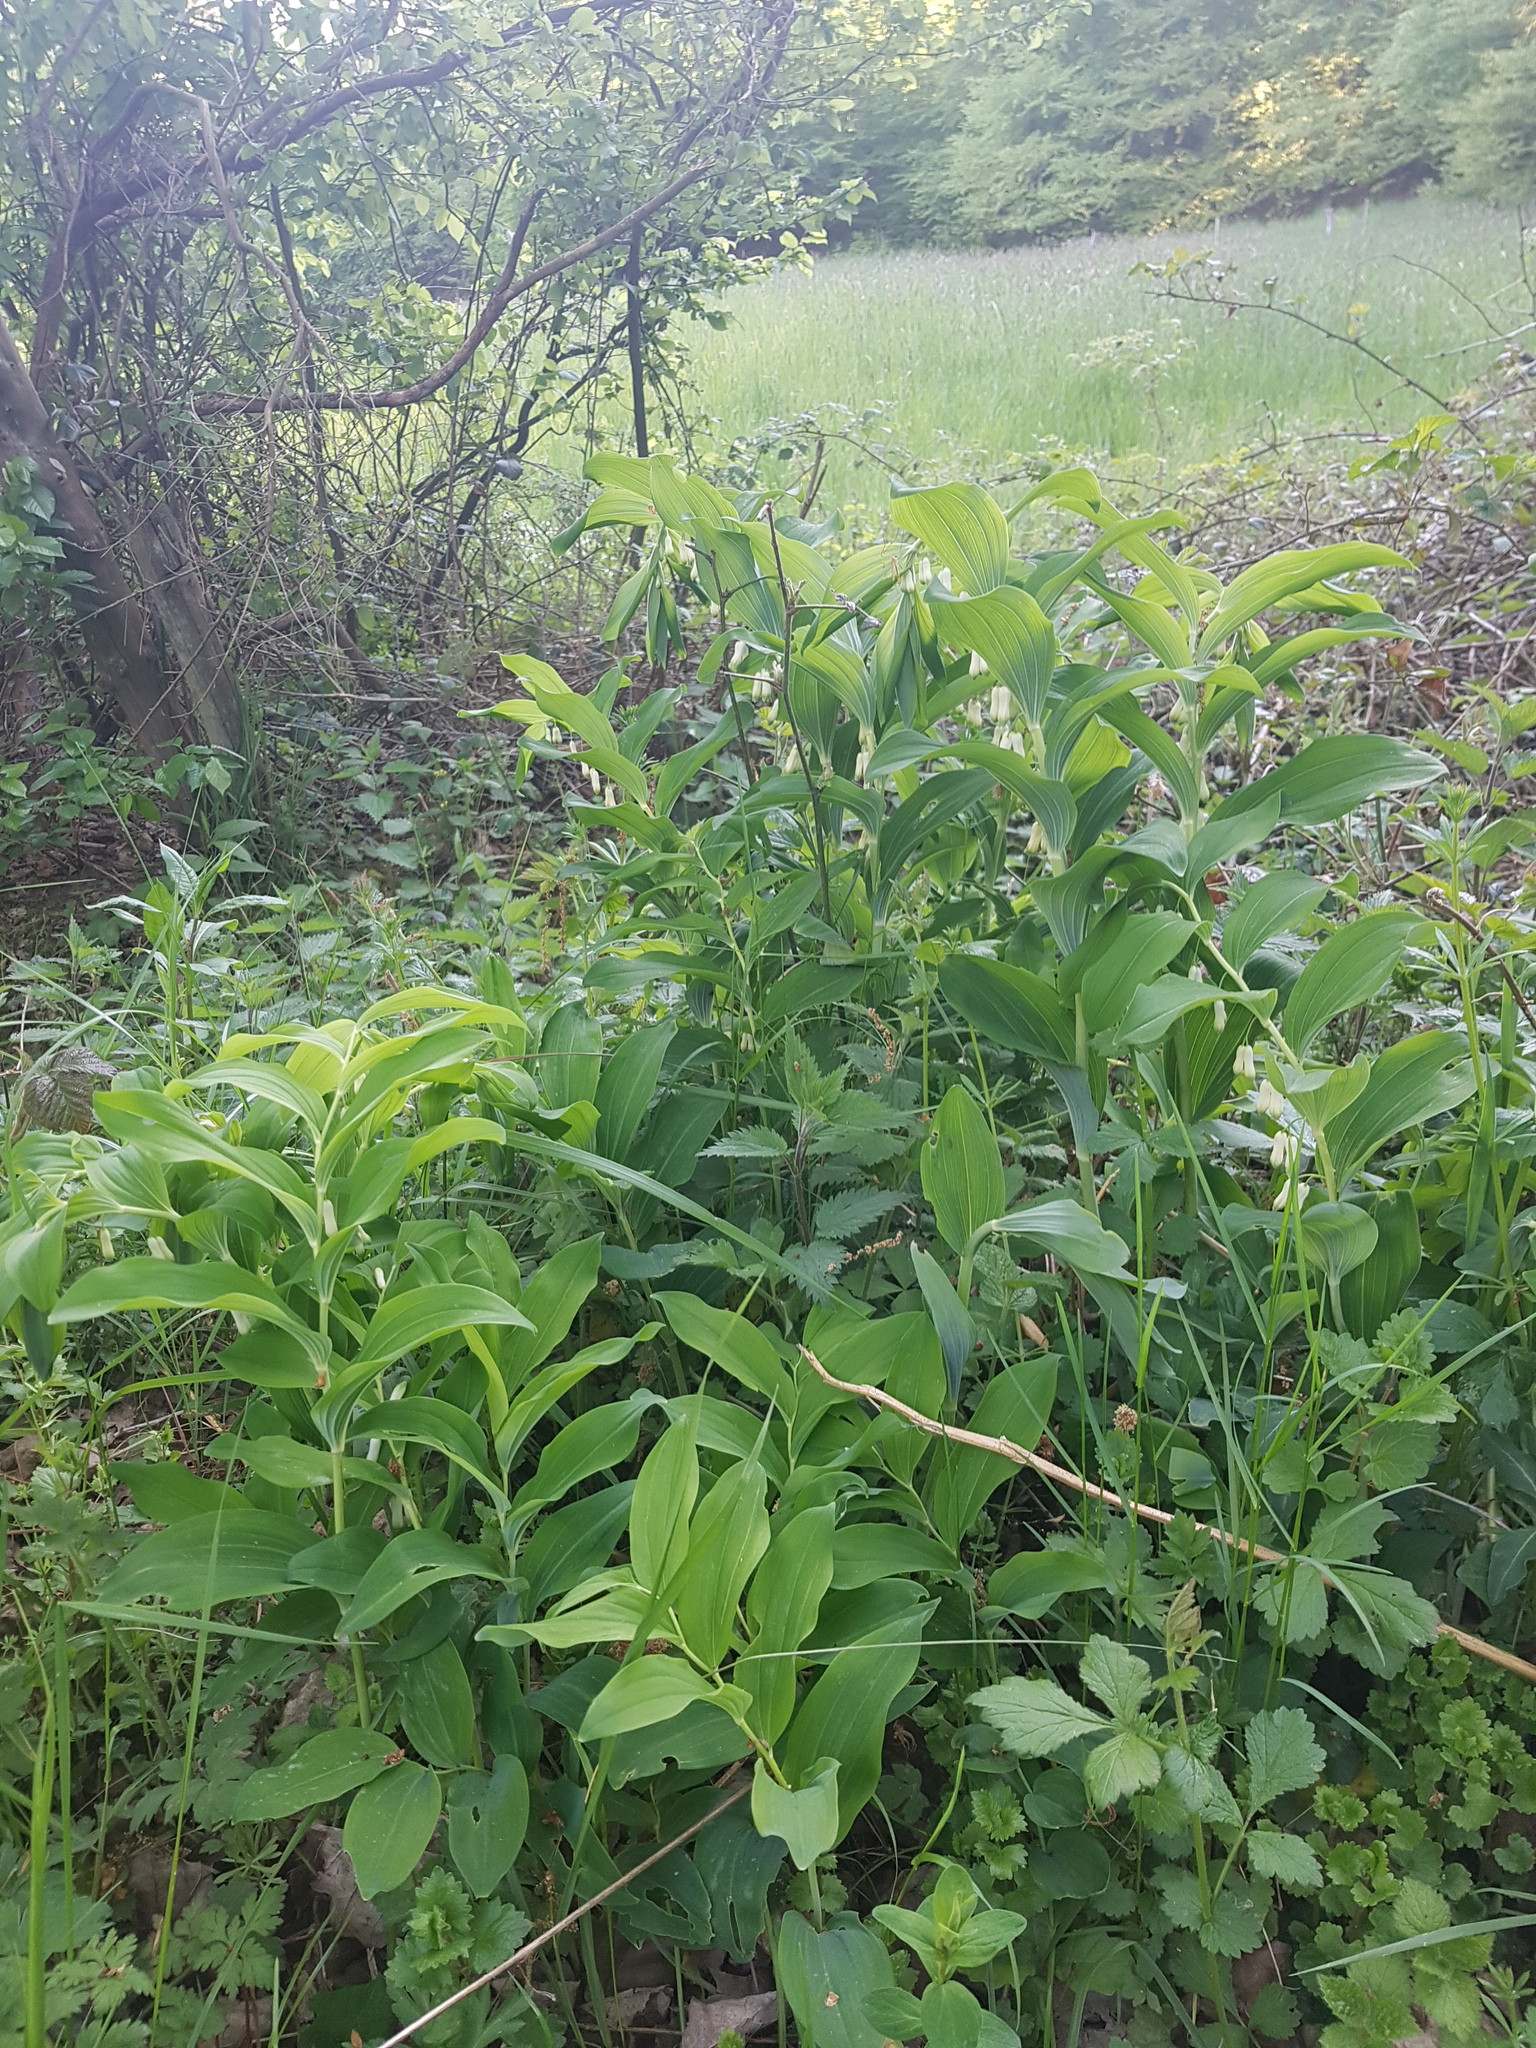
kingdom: Plantae
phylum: Tracheophyta
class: Liliopsida
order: Asparagales
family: Asparagaceae
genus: Polygonatum
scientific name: Polygonatum multiflorum
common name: Solomon's-seal
